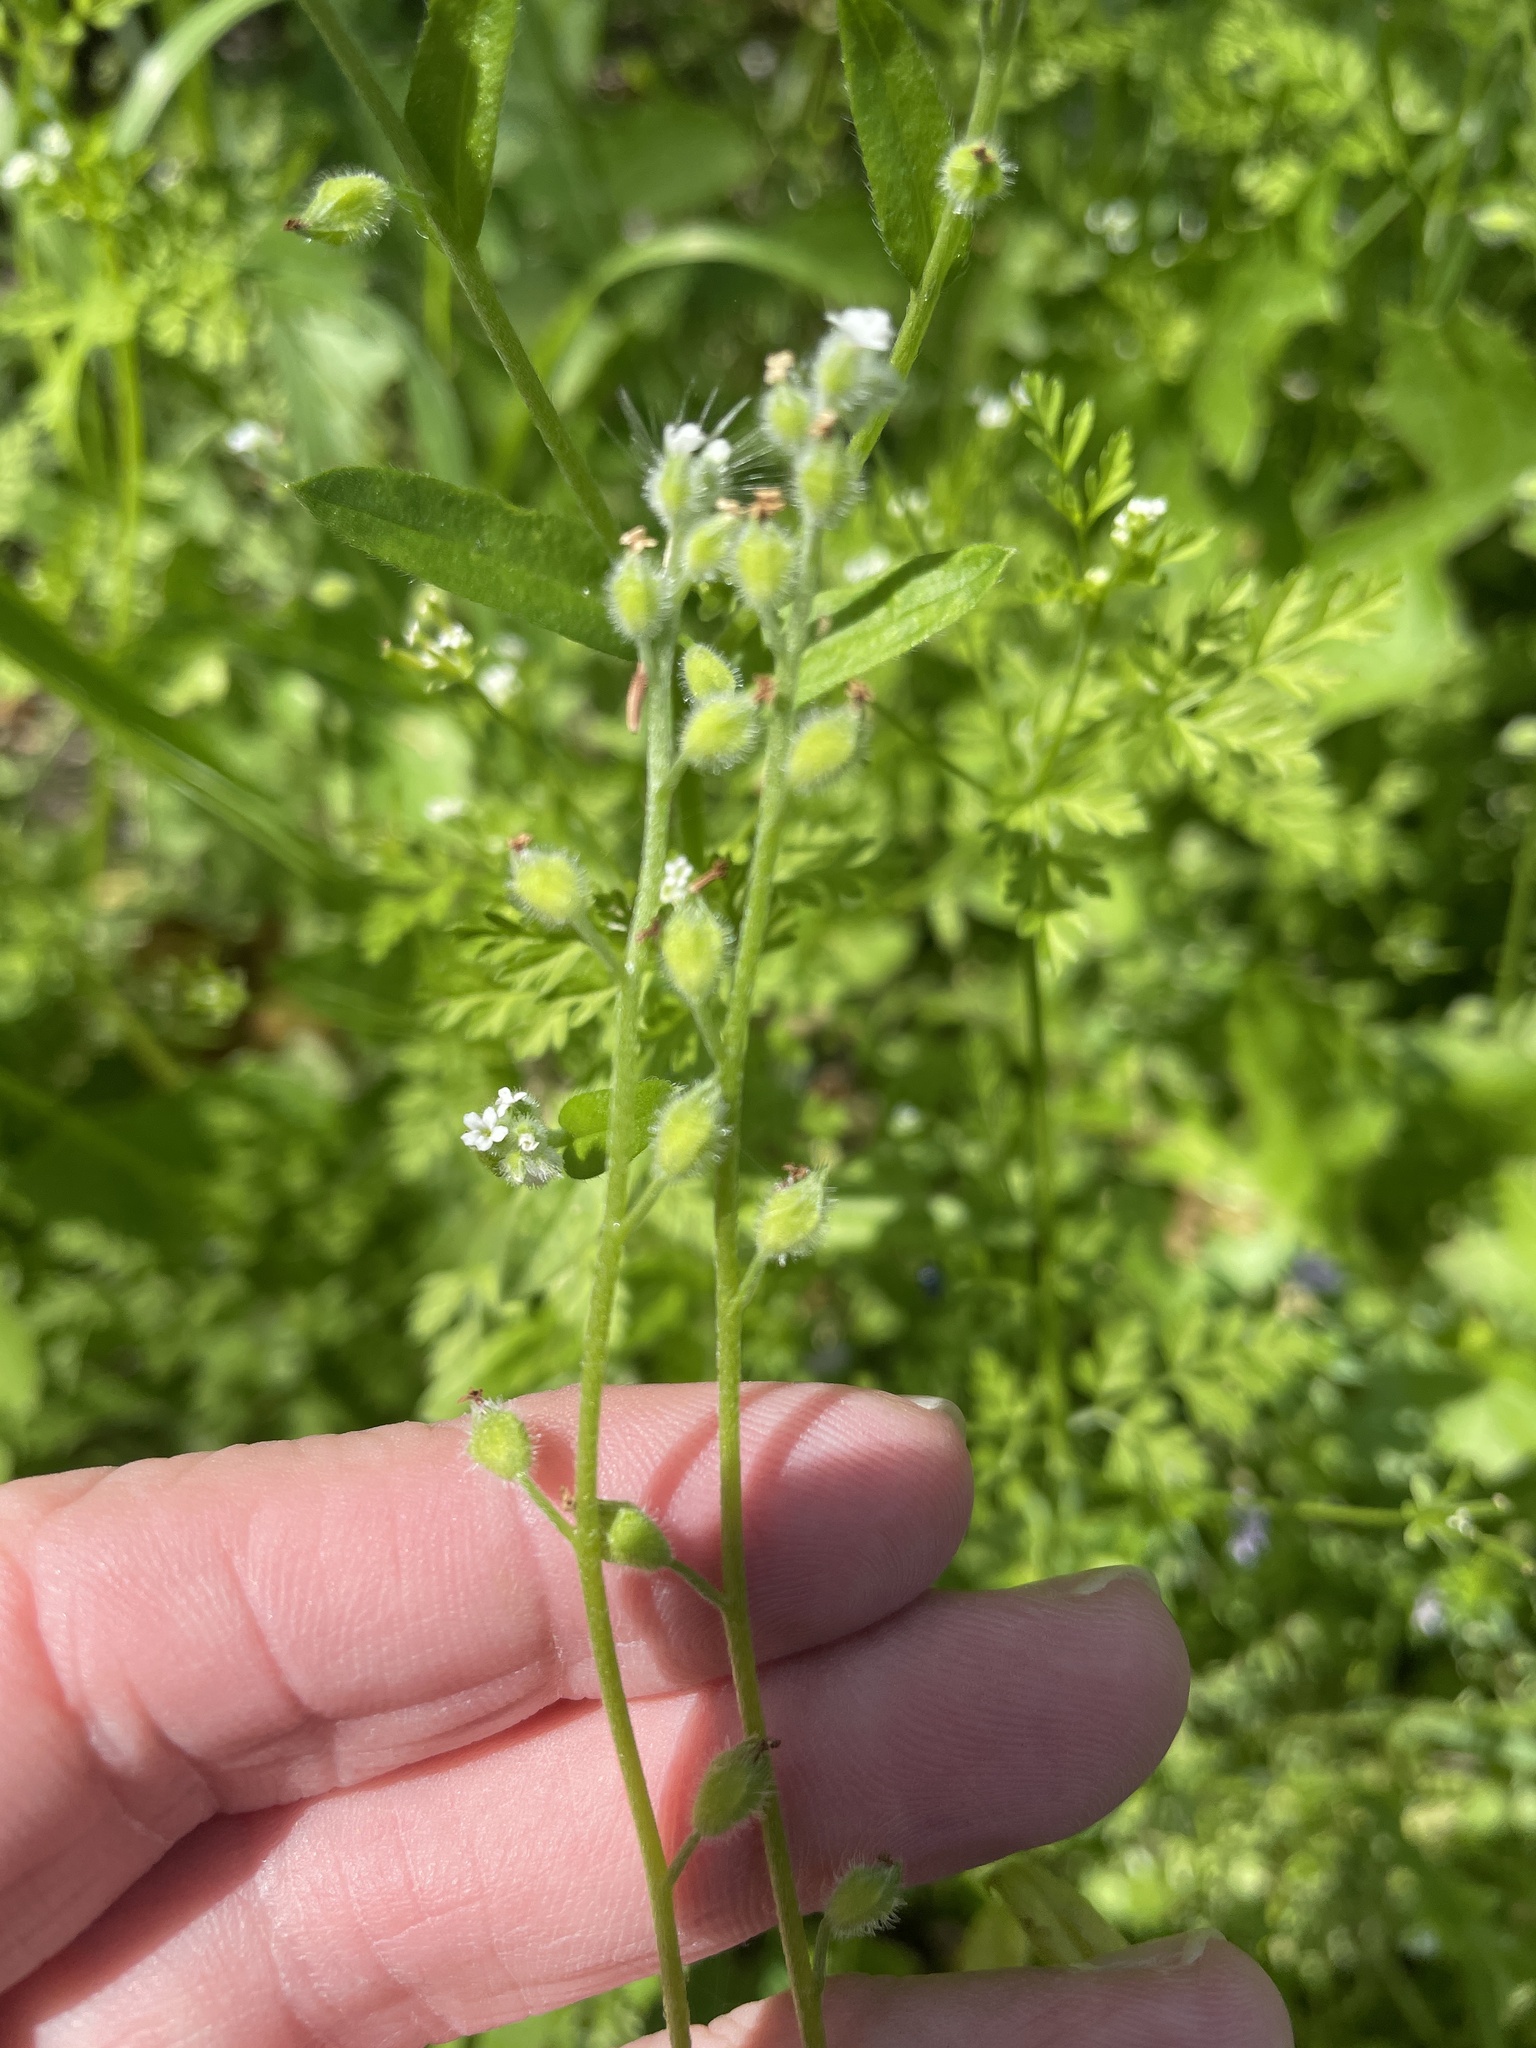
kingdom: Plantae
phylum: Tracheophyta
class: Magnoliopsida
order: Boraginales
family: Boraginaceae
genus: Myosotis
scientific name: Myosotis macrosperma
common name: Large-seed forget-me-not
